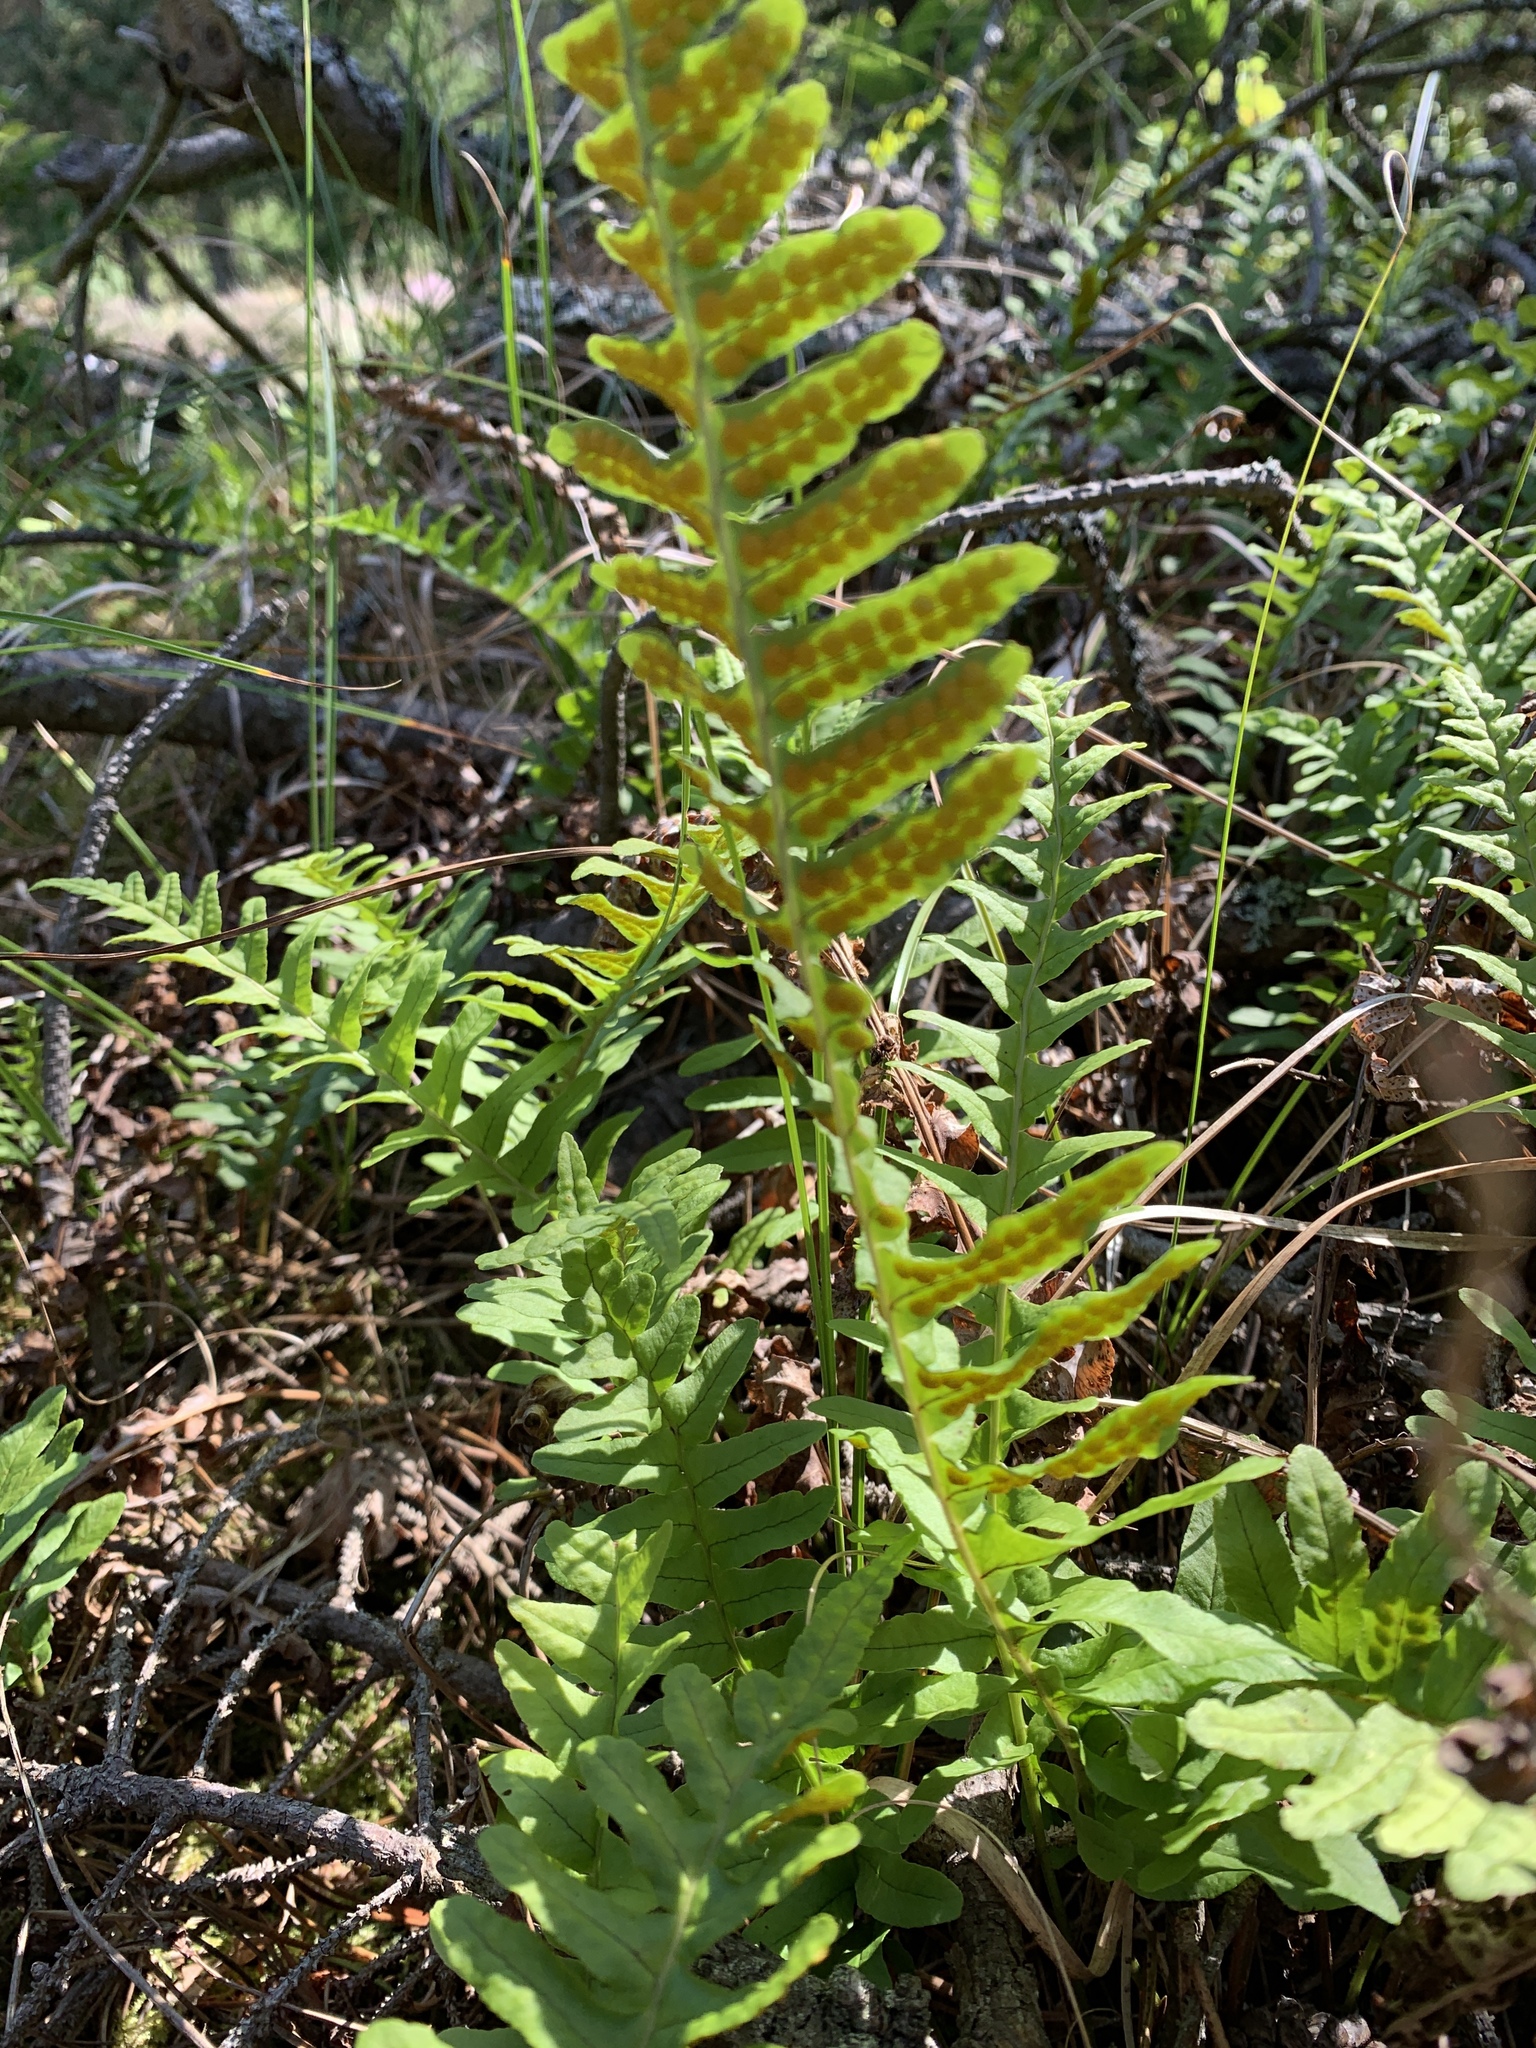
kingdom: Plantae
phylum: Tracheophyta
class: Polypodiopsida
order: Polypodiales
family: Polypodiaceae
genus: Polypodium
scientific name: Polypodium vulgare
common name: Common polypody
